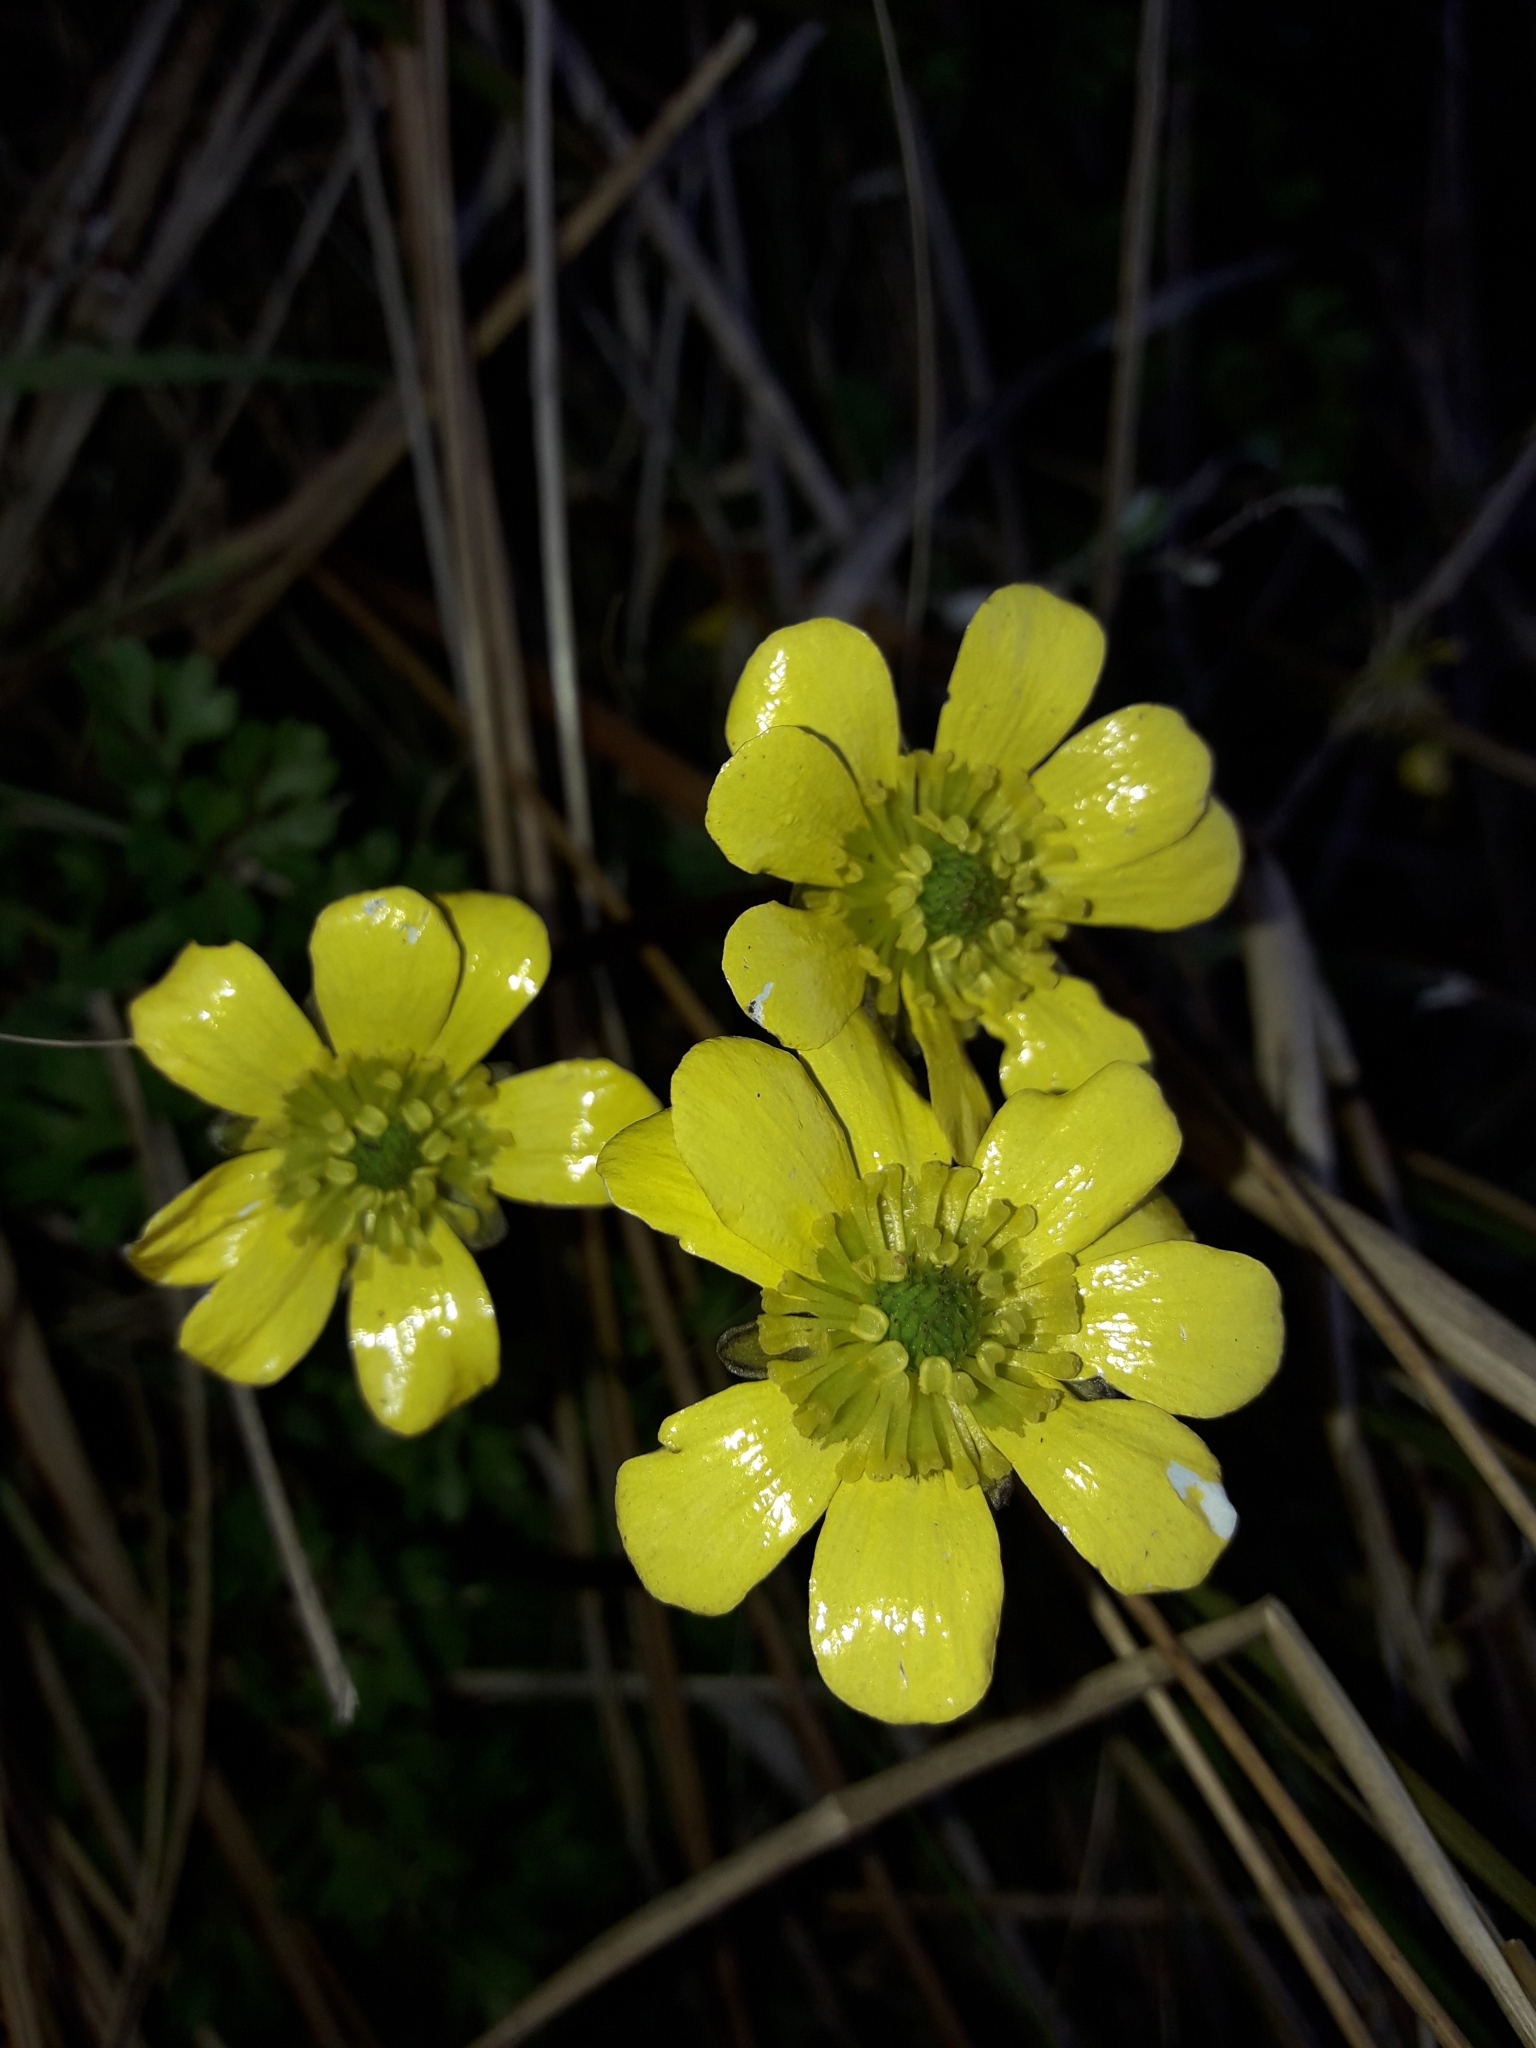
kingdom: Plantae
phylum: Tracheophyta
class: Magnoliopsida
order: Ranunculales
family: Ranunculaceae
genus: Ranunculus
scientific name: Ranunculus enysii
